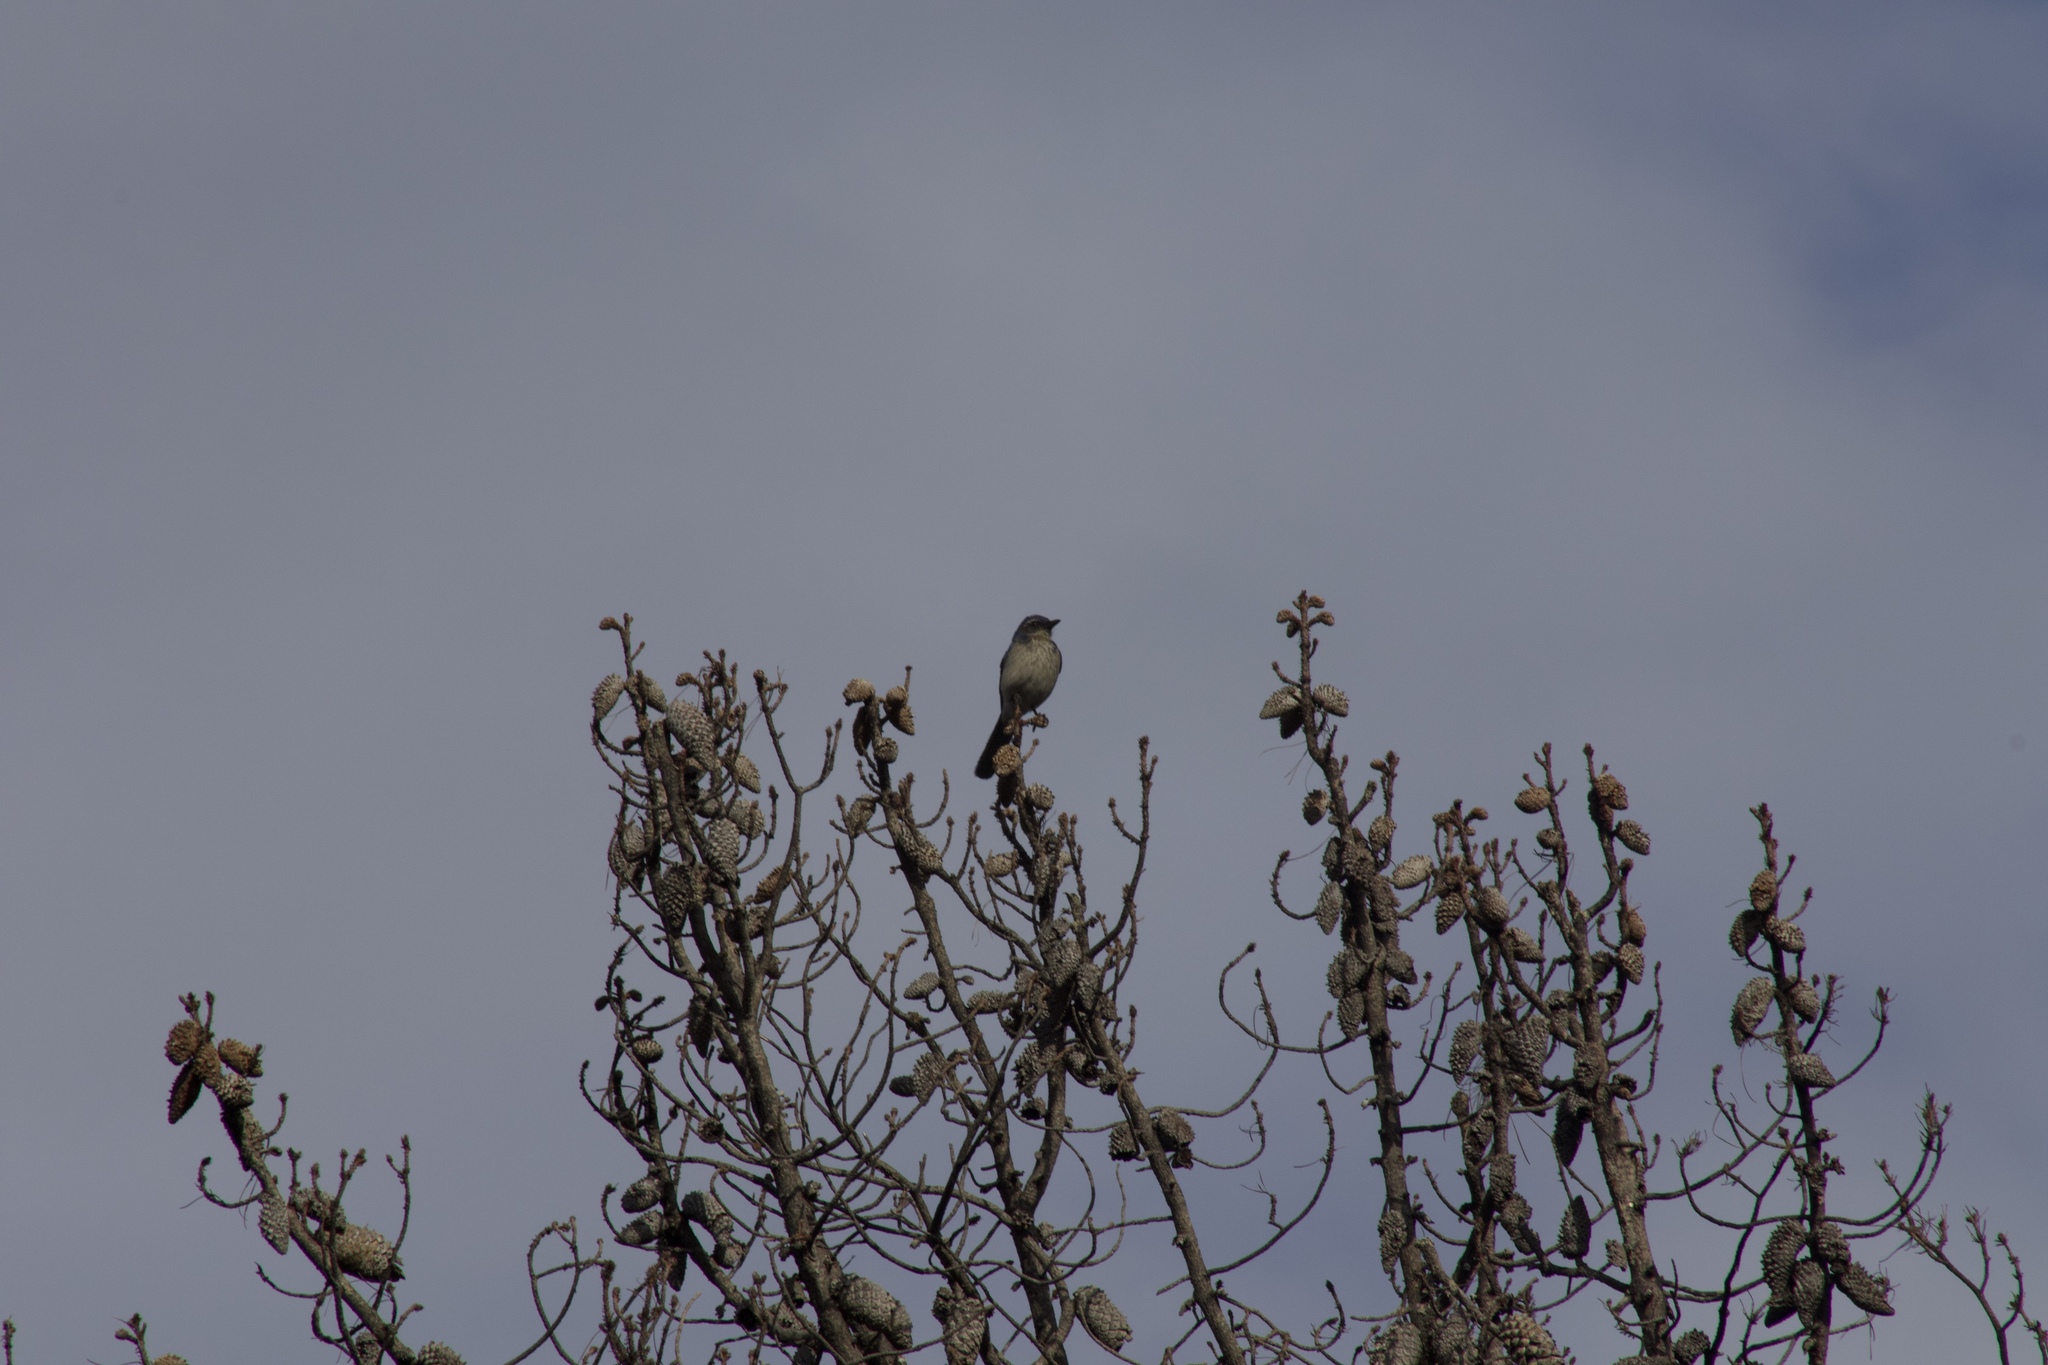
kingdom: Animalia
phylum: Chordata
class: Aves
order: Passeriformes
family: Corvidae
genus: Aphelocoma
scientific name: Aphelocoma californica
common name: California scrub-jay
